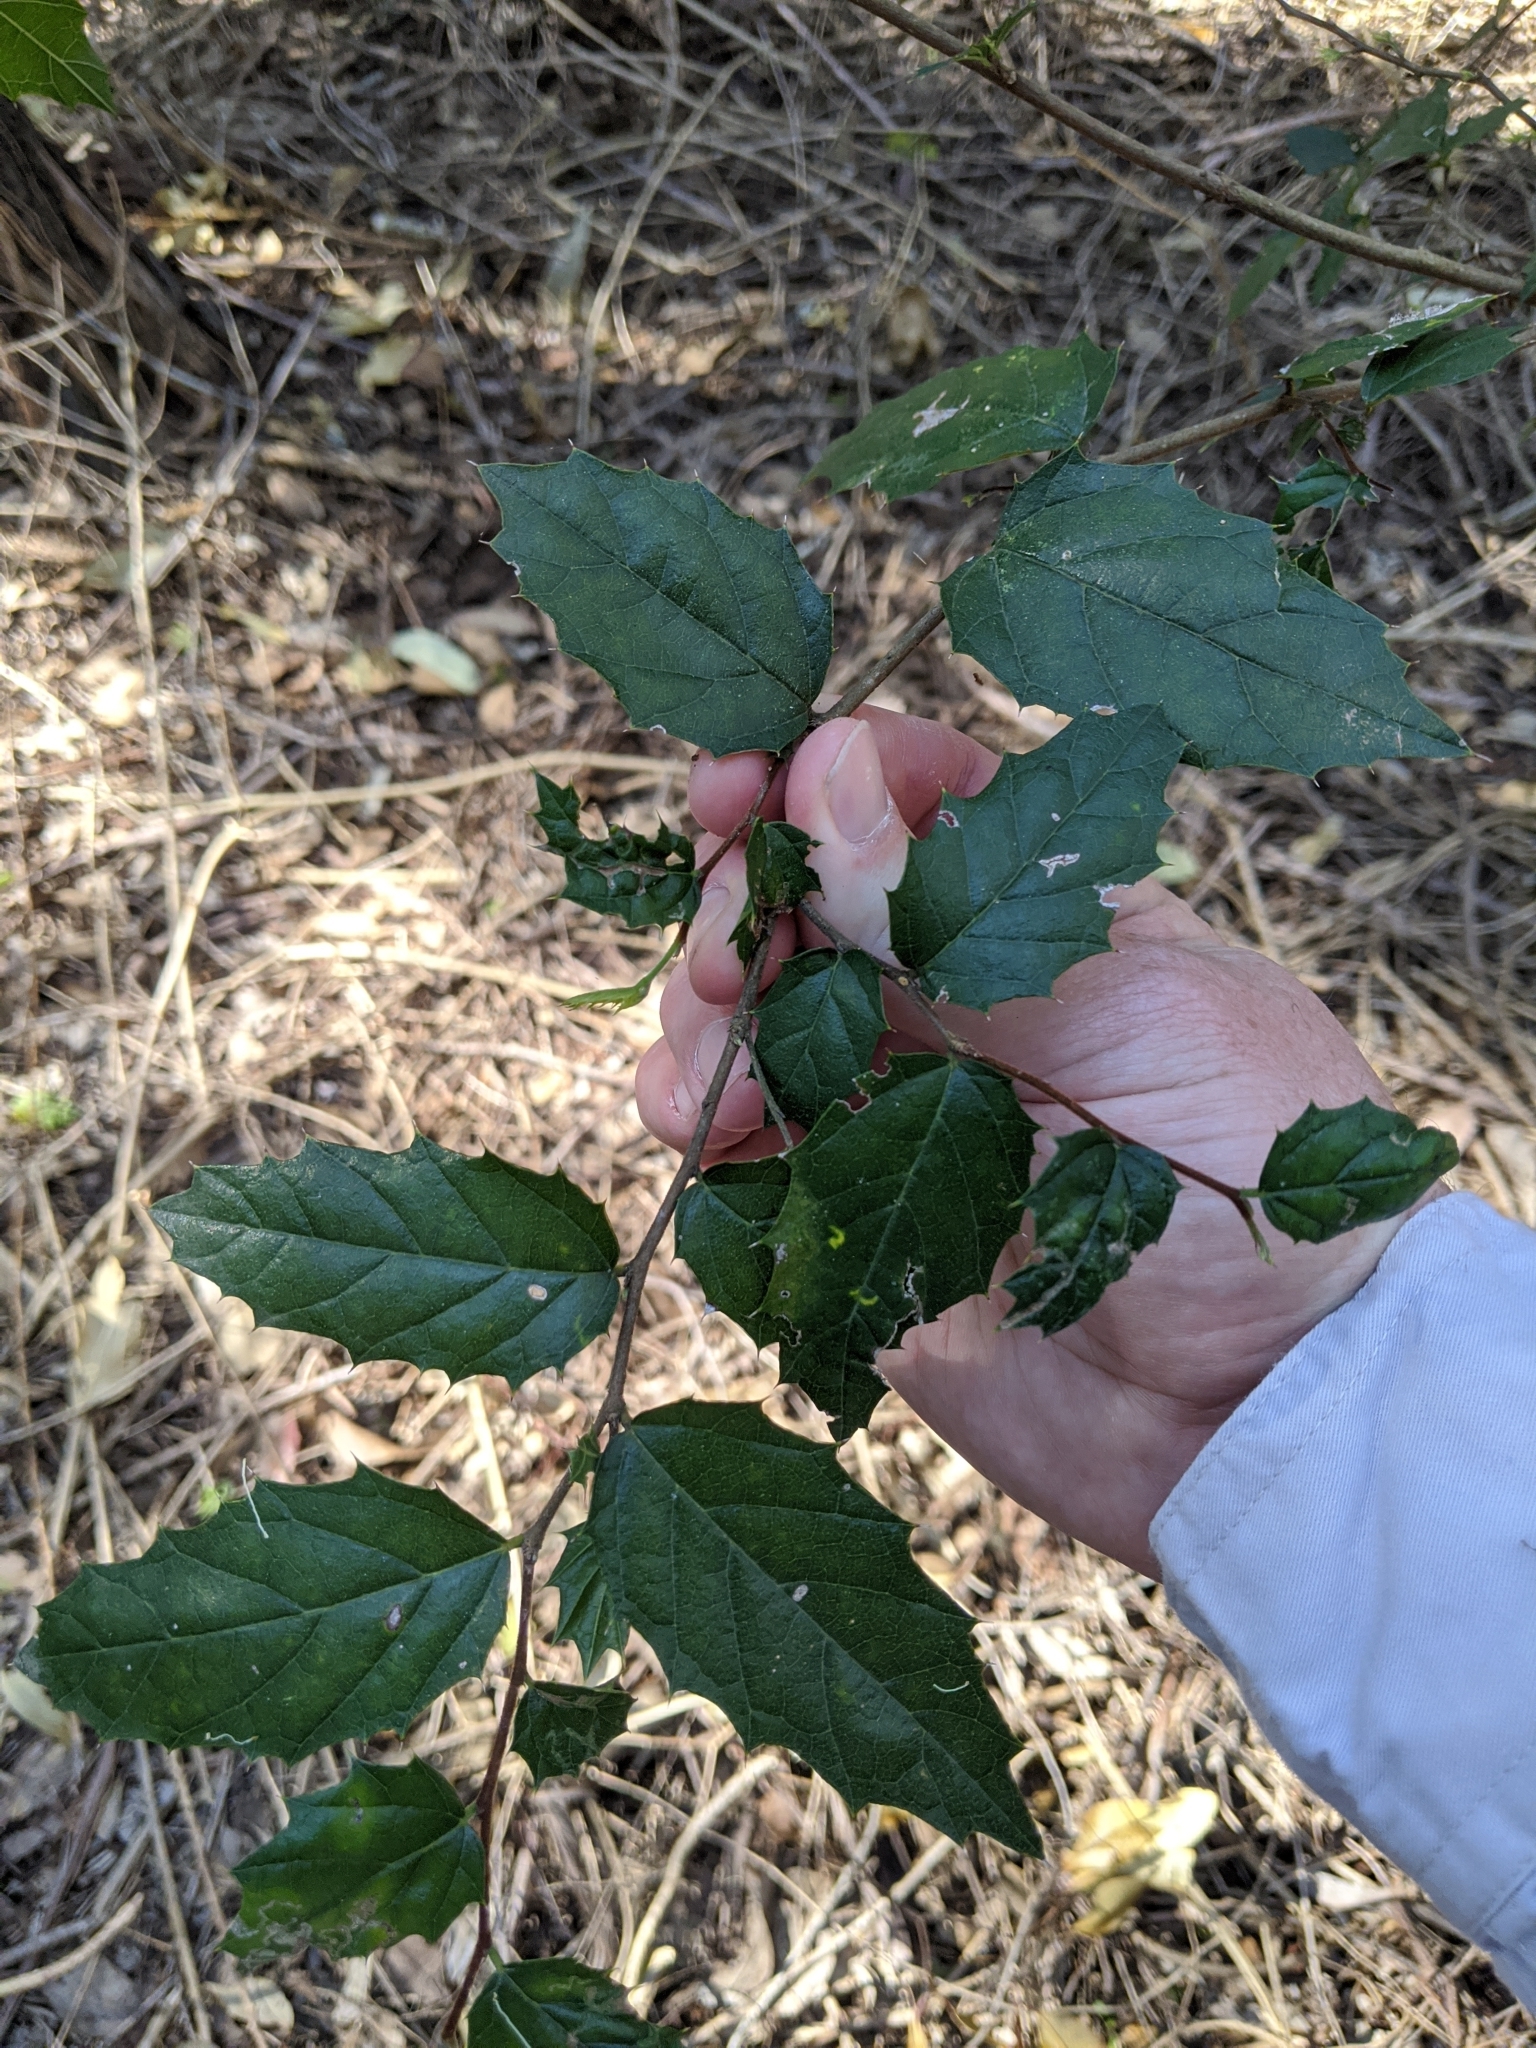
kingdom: Plantae
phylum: Tracheophyta
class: Magnoliopsida
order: Rosales
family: Cannabaceae
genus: Aphananthe
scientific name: Aphananthe philippinensis
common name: Wild holly
